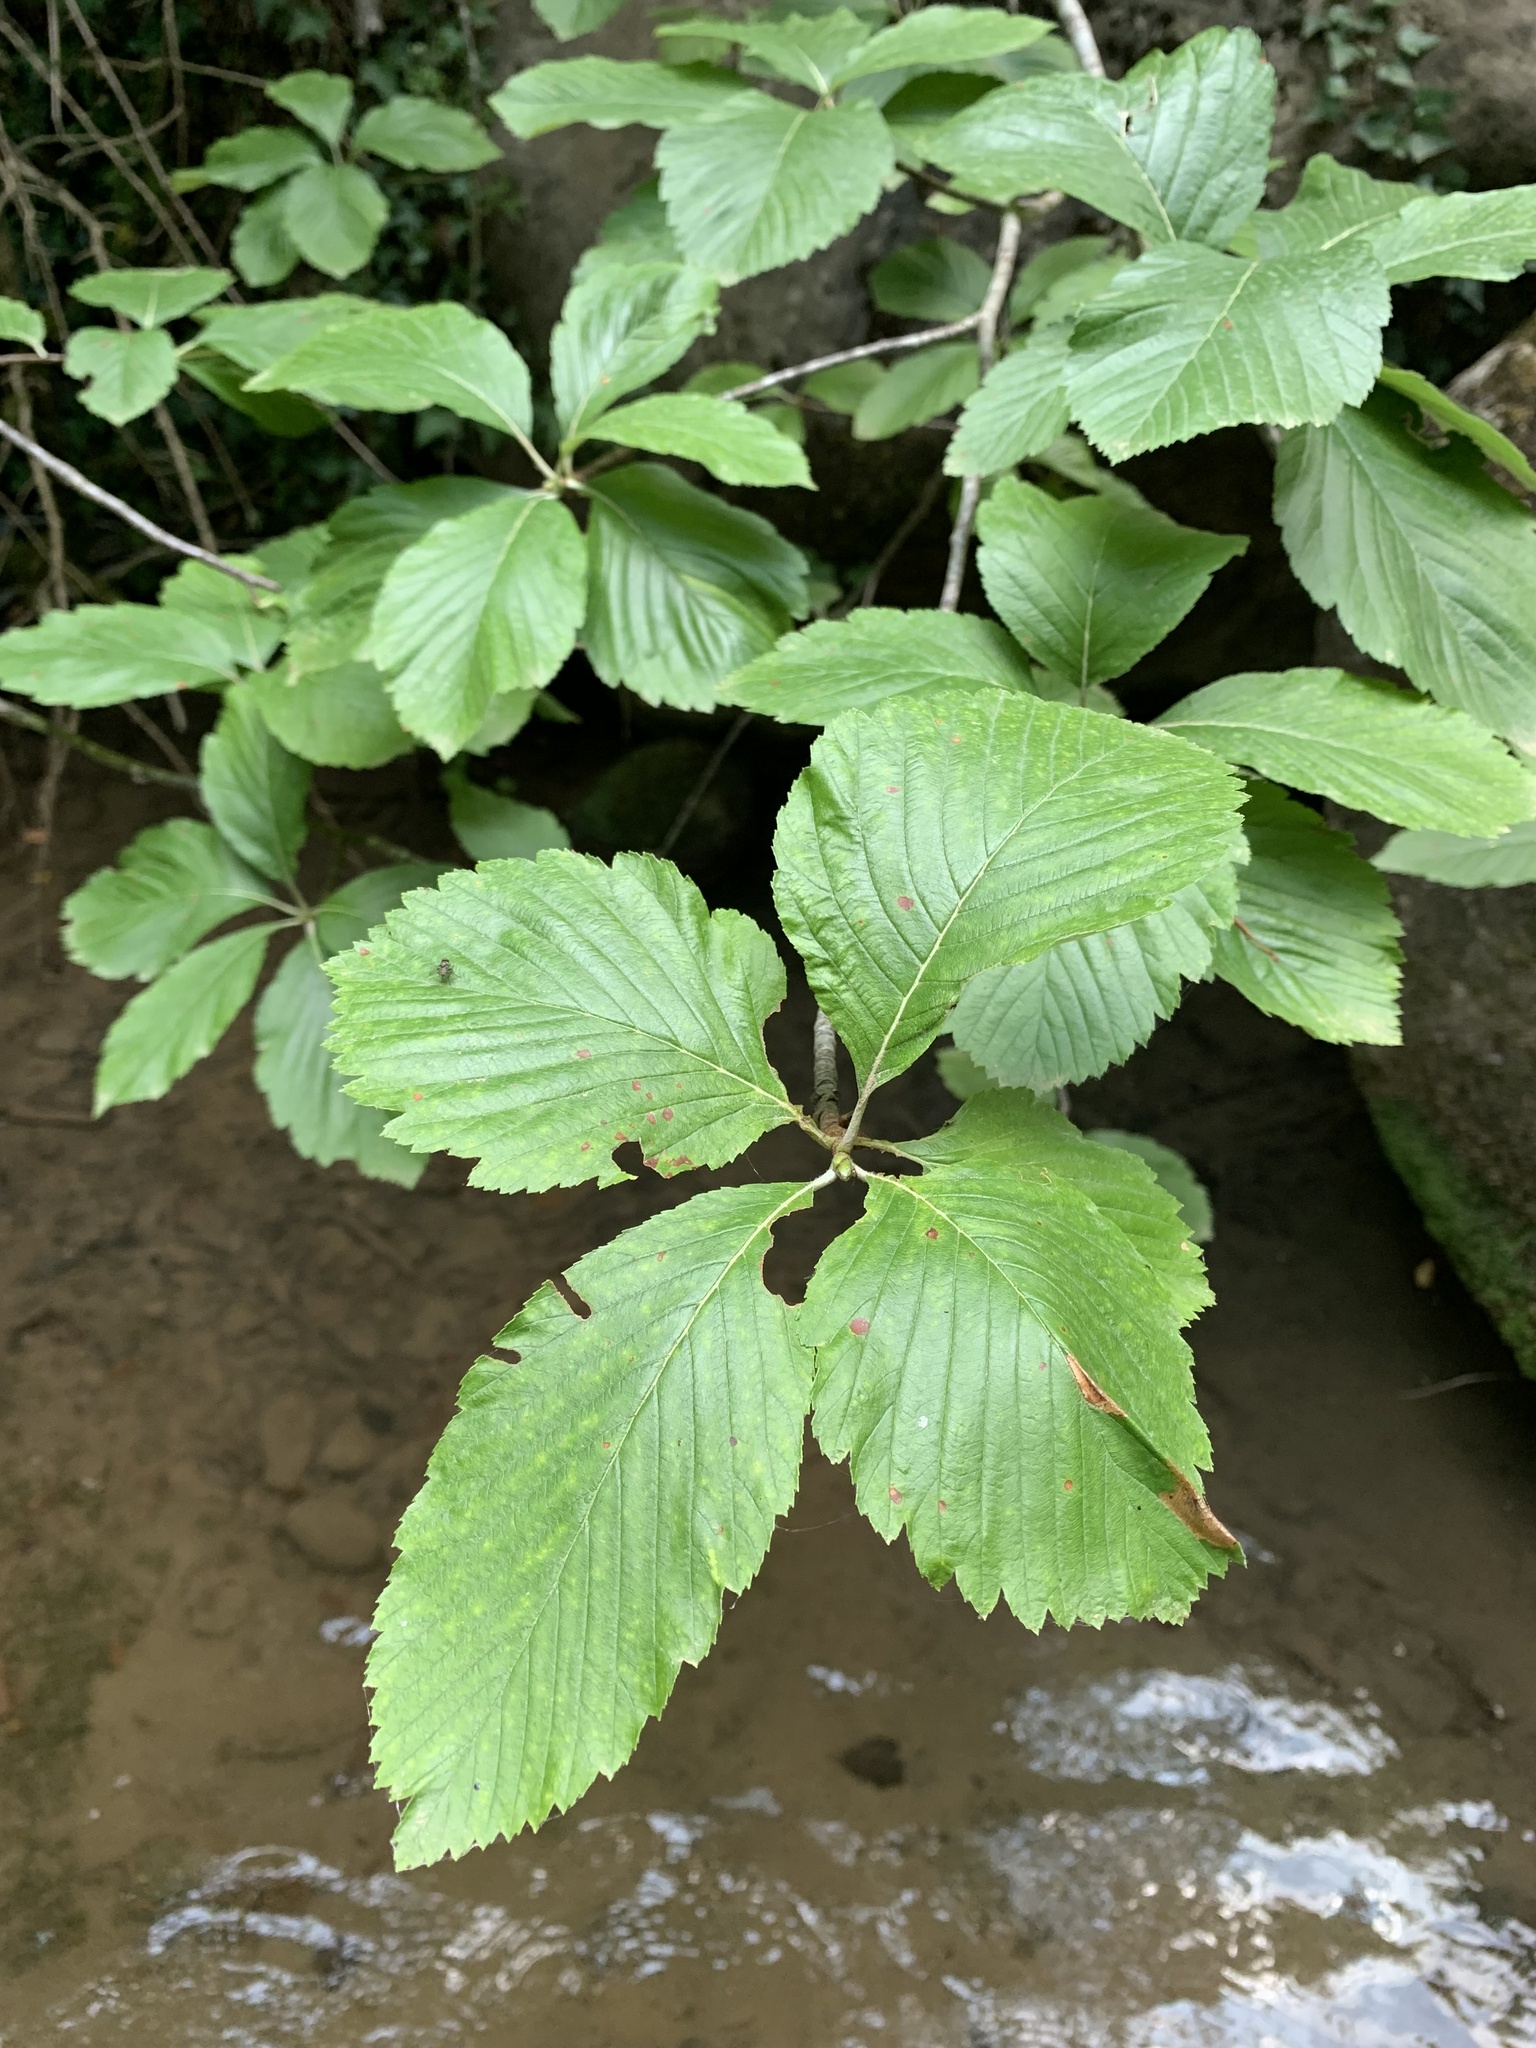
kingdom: Plantae
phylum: Tracheophyta
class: Magnoliopsida
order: Rosales
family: Rosaceae
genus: Aria
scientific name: Aria edulis
